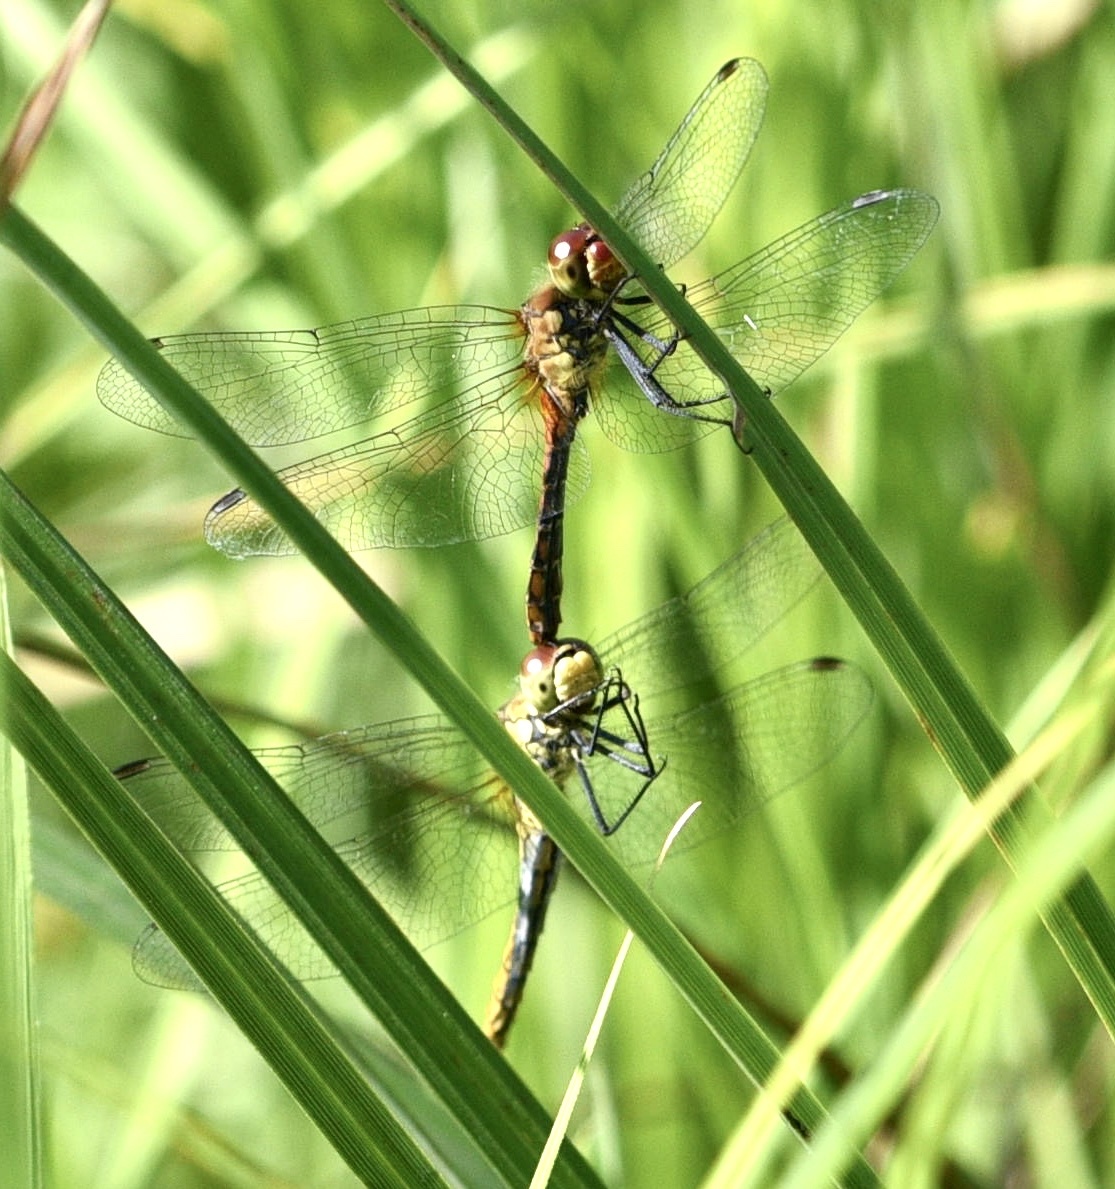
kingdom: Animalia
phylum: Arthropoda
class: Insecta
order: Odonata
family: Libellulidae
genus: Sympetrum
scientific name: Sympetrum sanguineum
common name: Ruddy darter
